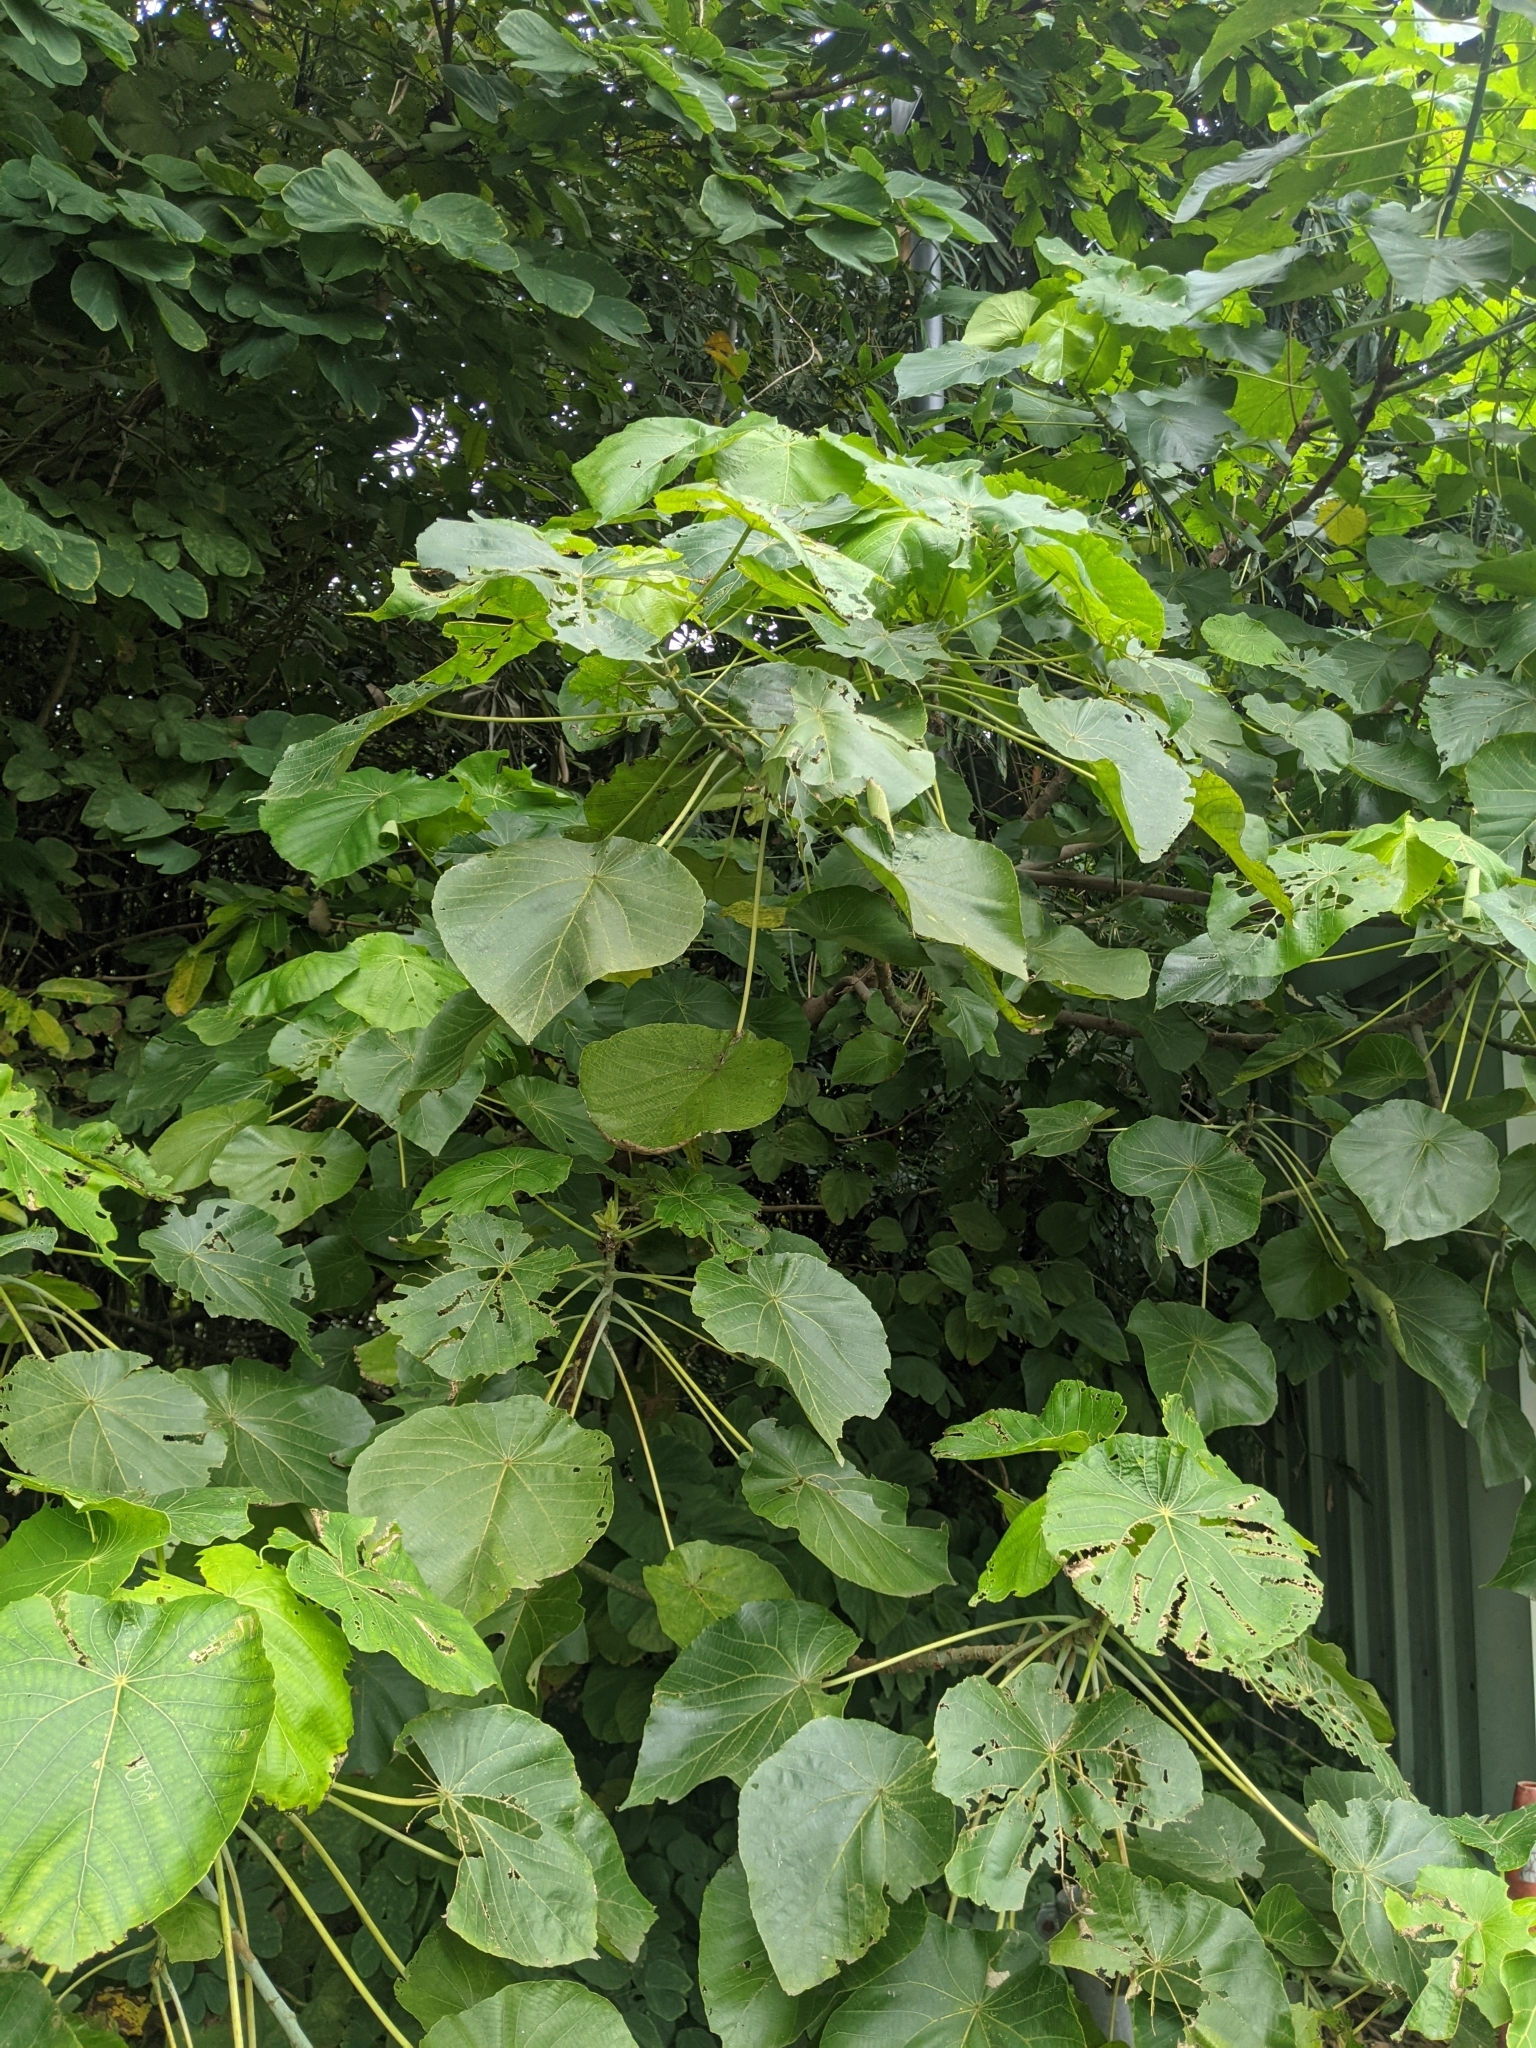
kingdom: Plantae
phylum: Tracheophyta
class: Magnoliopsida
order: Malpighiales
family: Euphorbiaceae
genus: Macaranga
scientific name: Macaranga tanarius
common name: Parasol leaf tree
